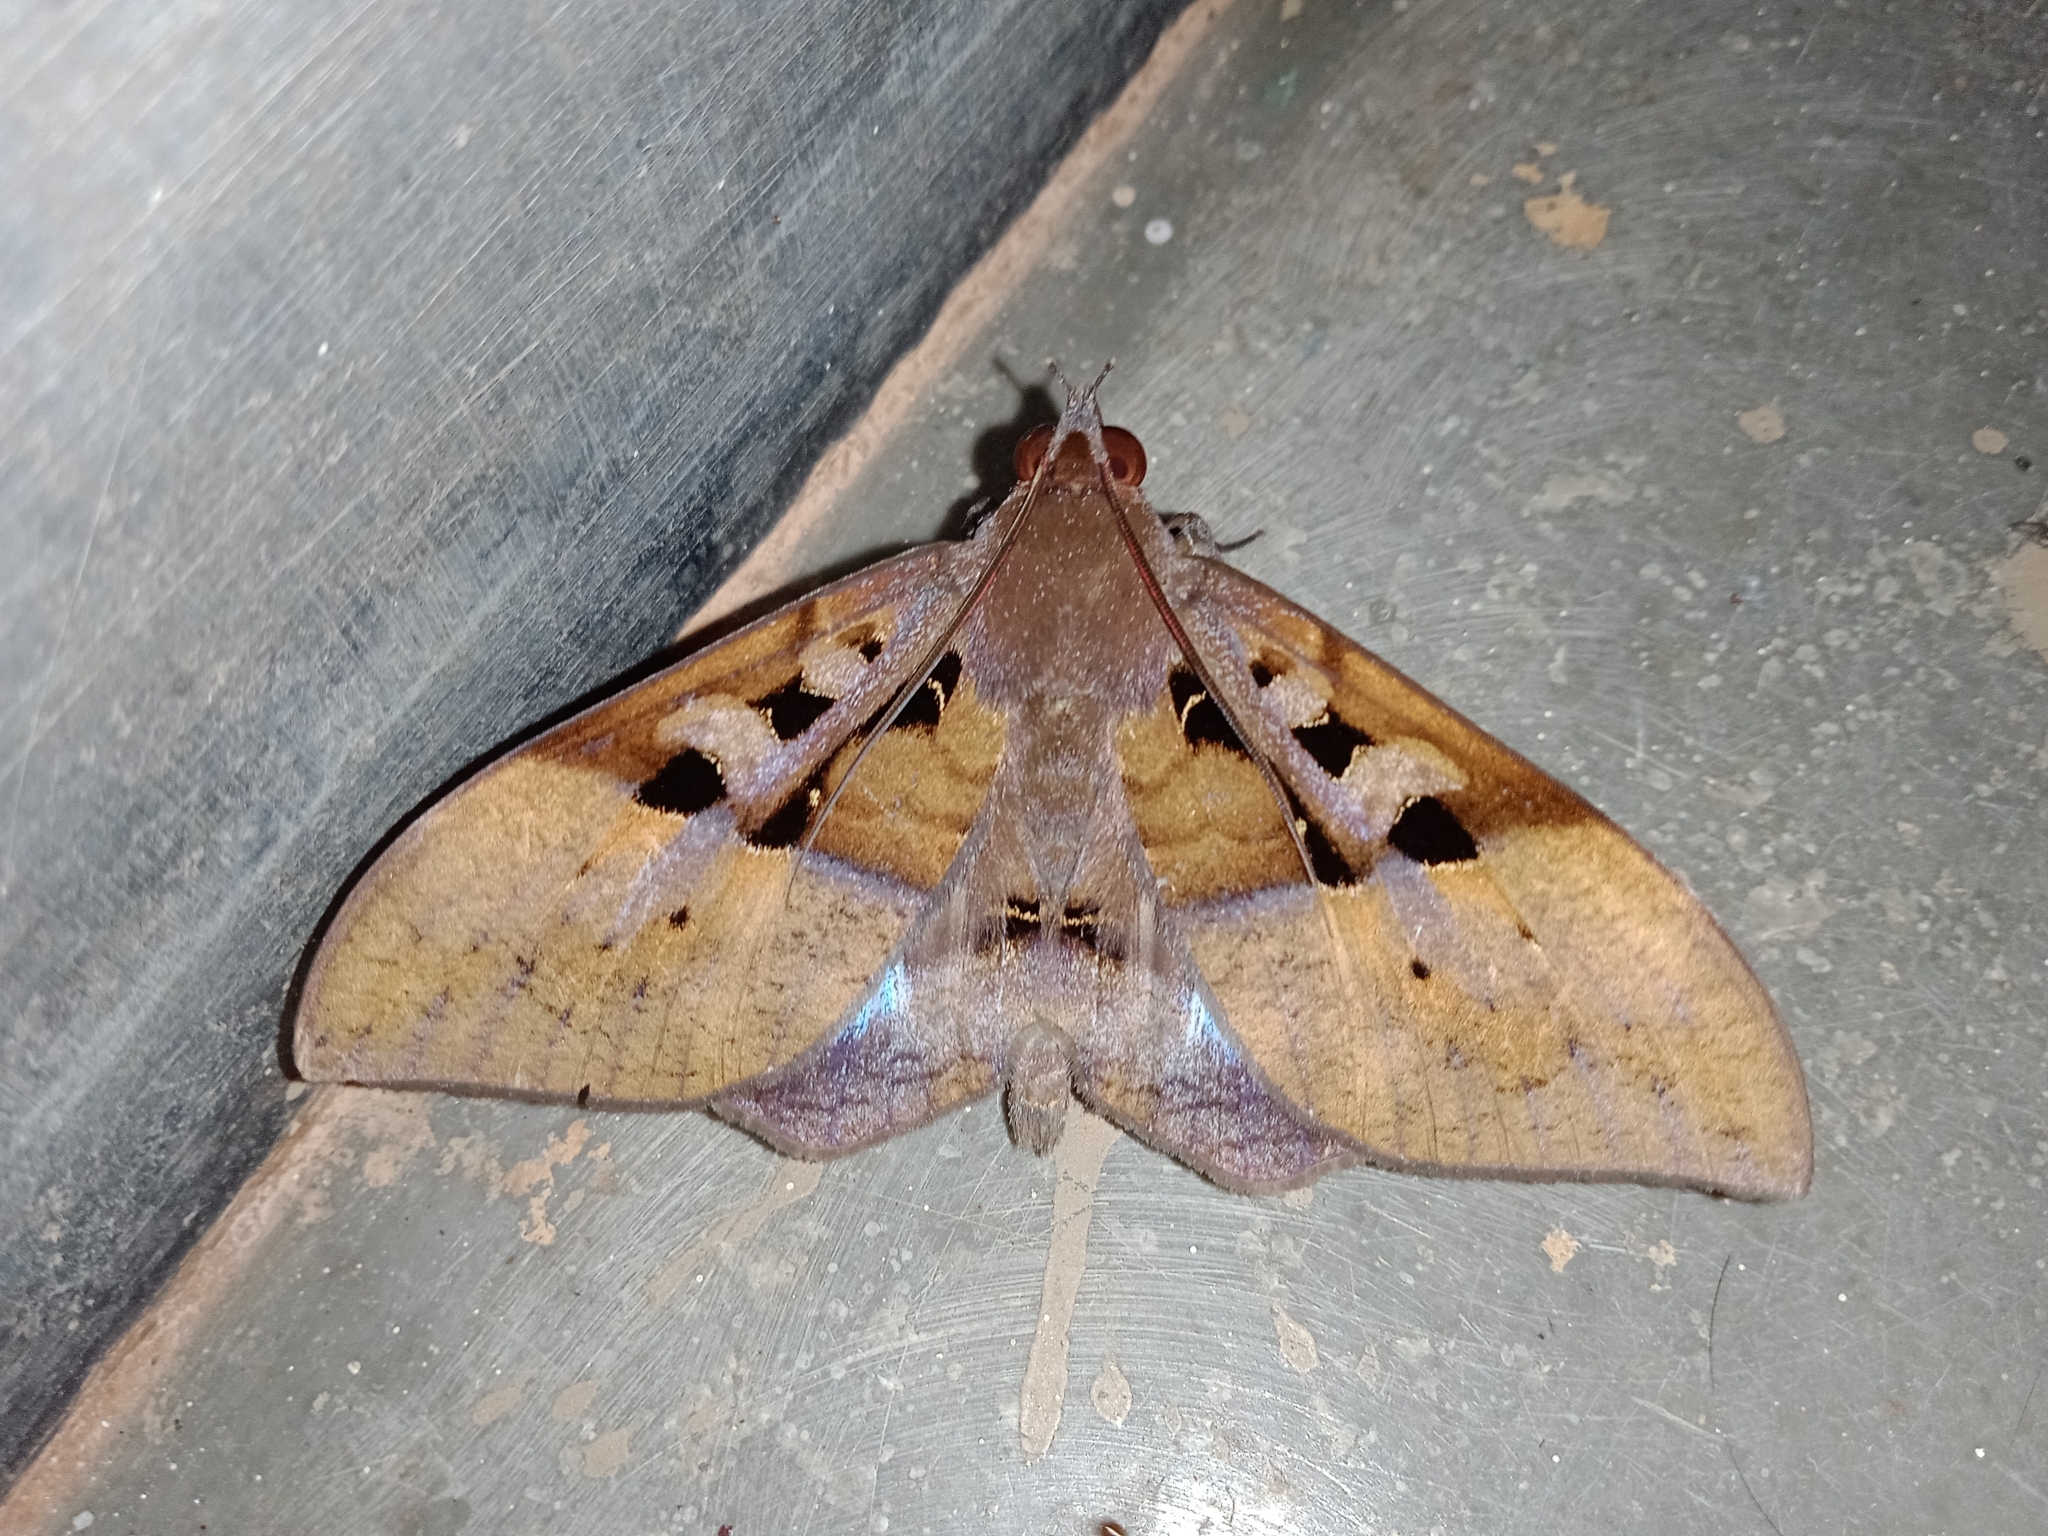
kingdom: Animalia
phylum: Arthropoda
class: Insecta
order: Lepidoptera
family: Erebidae
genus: Ischyja
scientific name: Ischyja marapok
